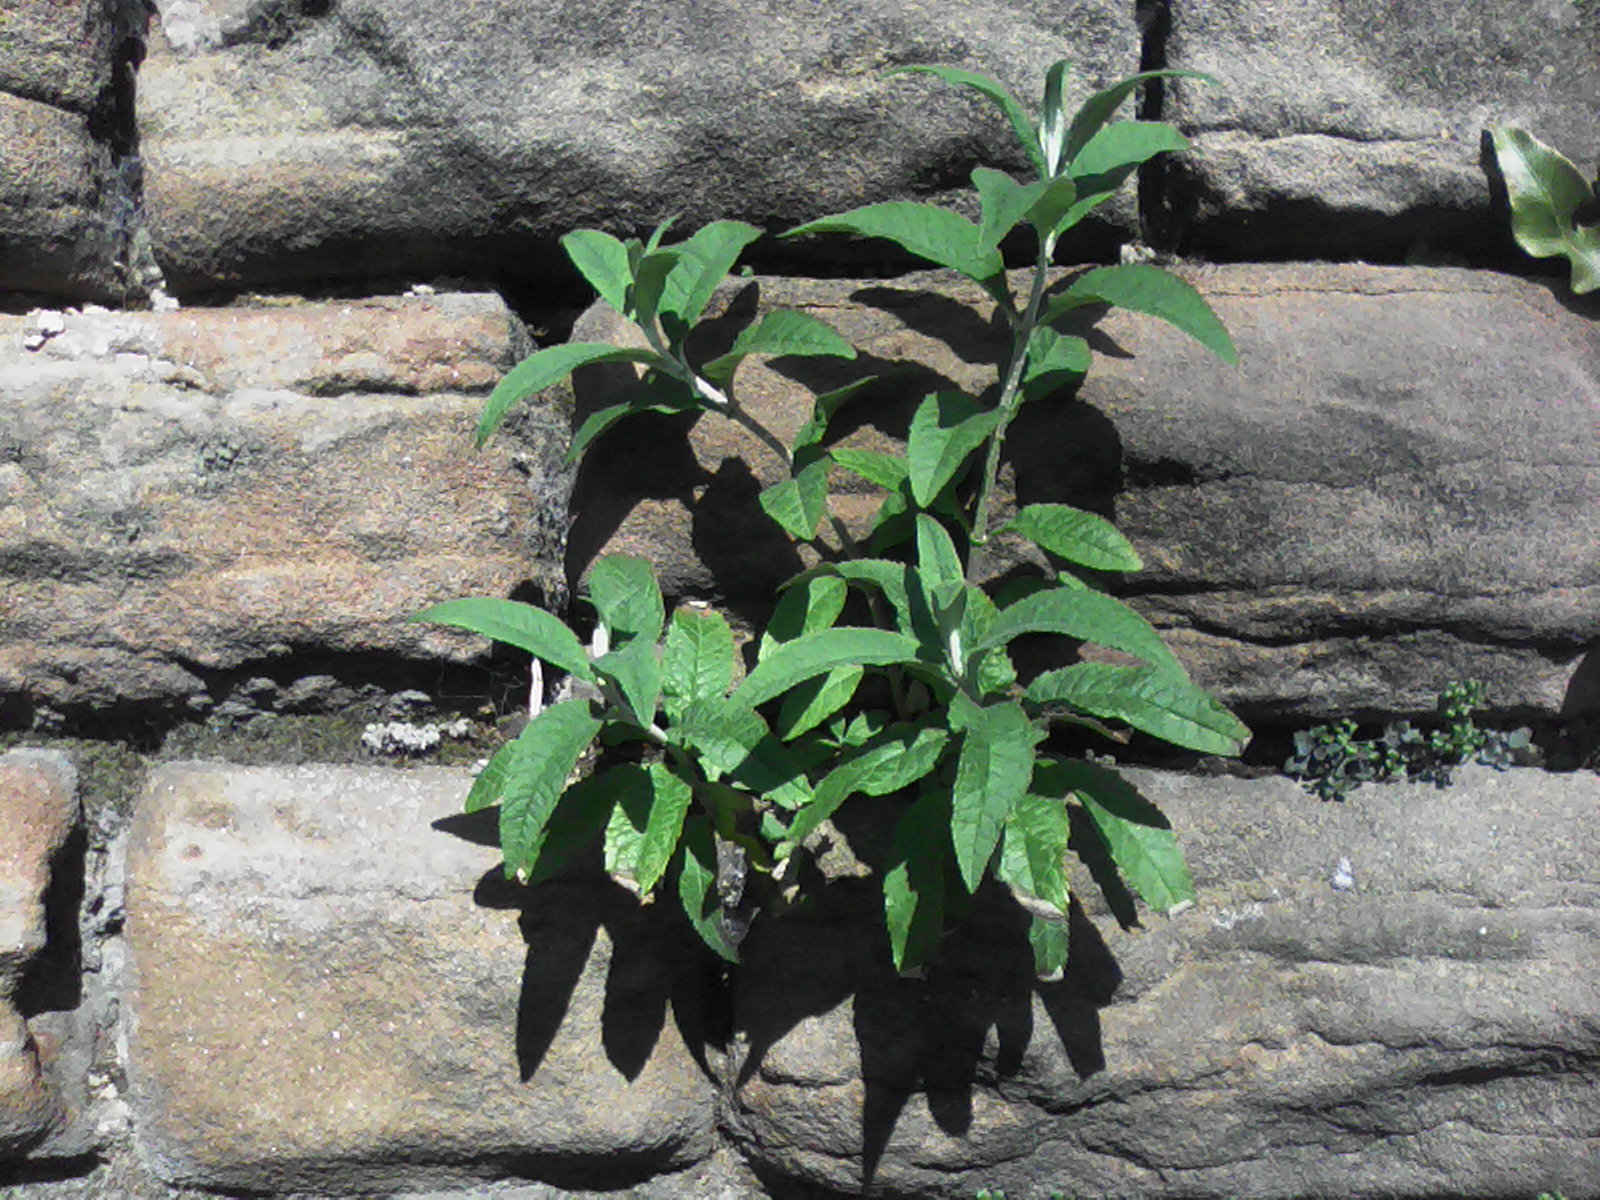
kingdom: Plantae
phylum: Tracheophyta
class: Magnoliopsida
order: Lamiales
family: Scrophulariaceae
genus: Buddleja
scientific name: Buddleja davidii
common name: Butterfly-bush
